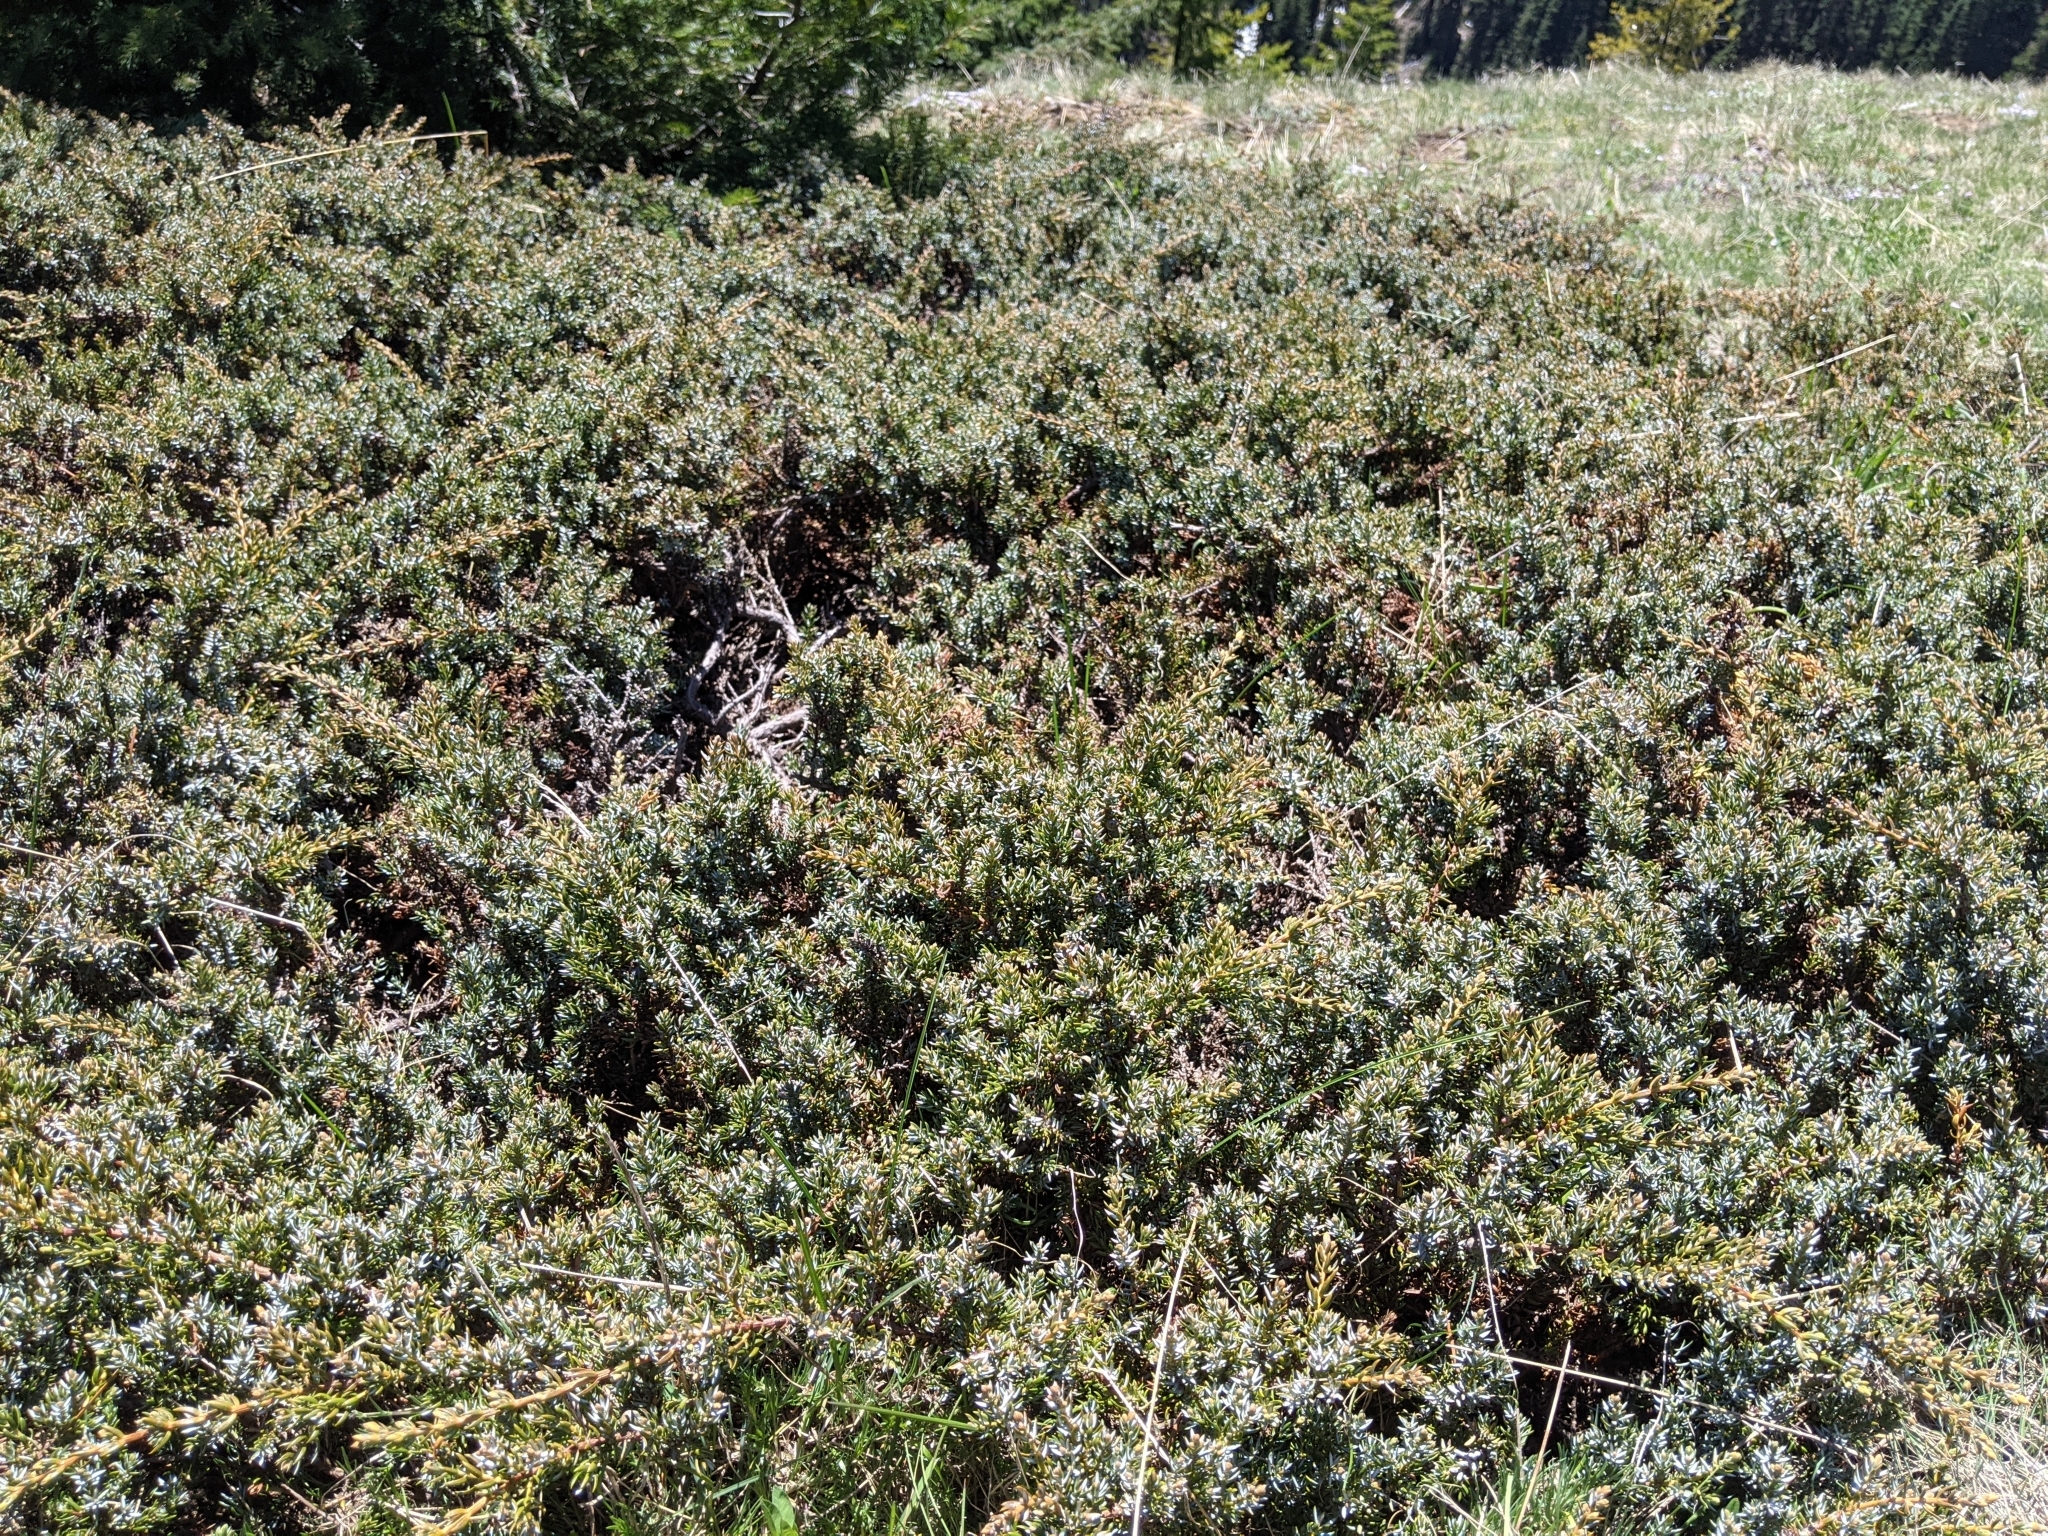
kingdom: Plantae
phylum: Tracheophyta
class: Pinopsida
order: Pinales
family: Cupressaceae
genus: Juniperus
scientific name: Juniperus communis
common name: Common juniper
